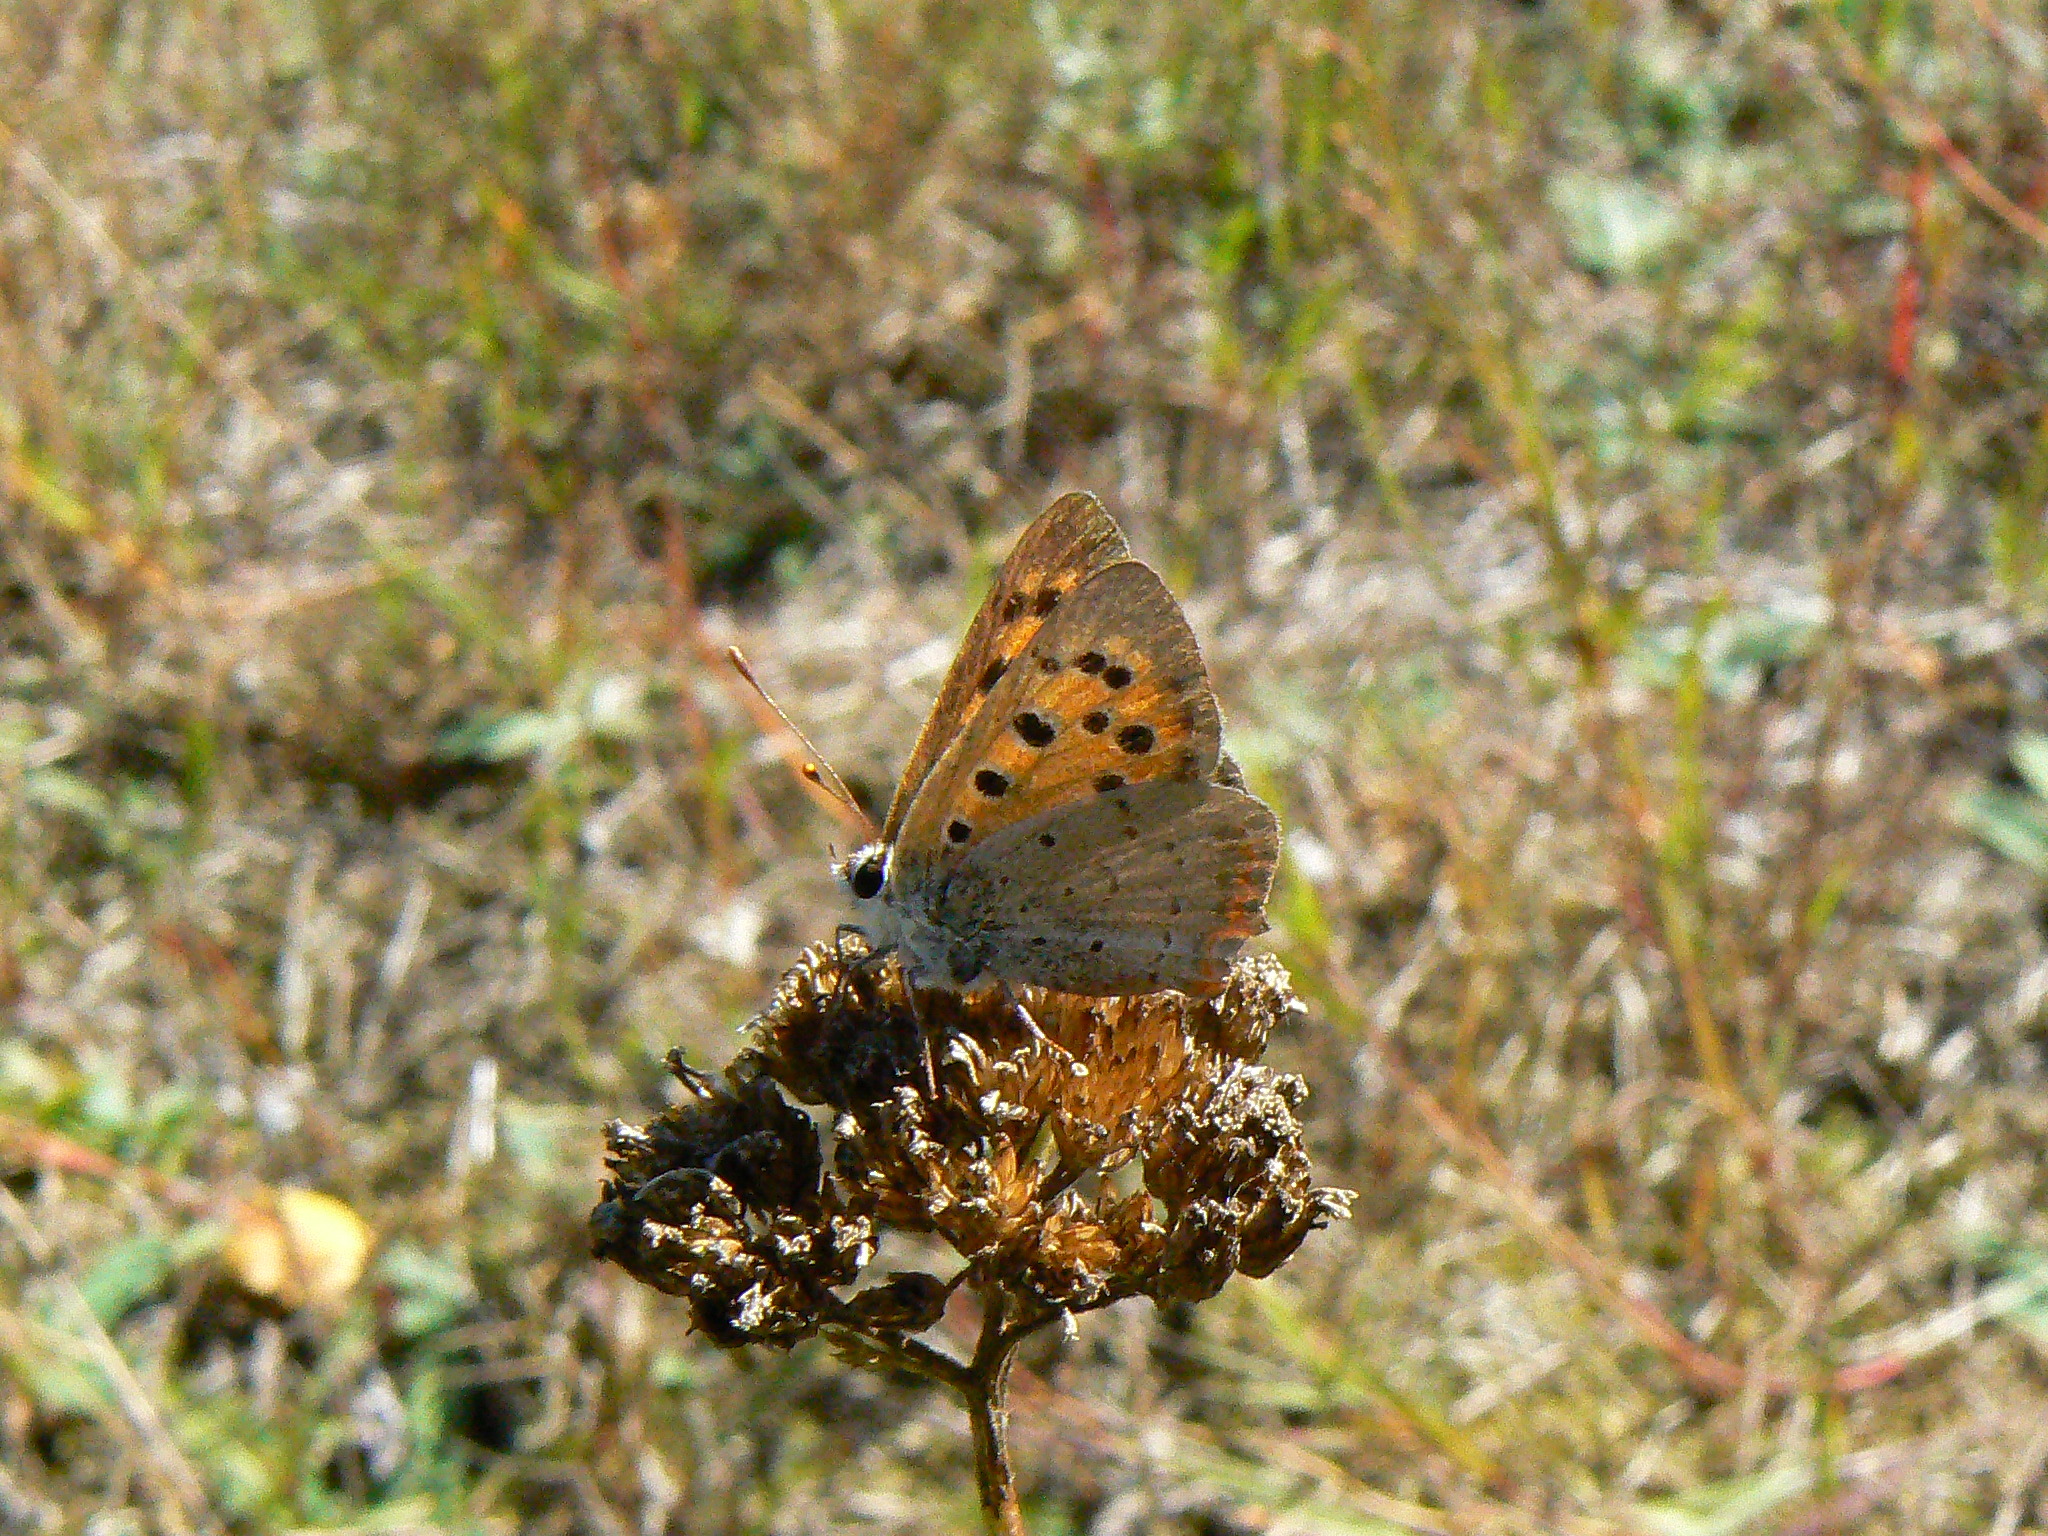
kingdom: Animalia
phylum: Arthropoda
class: Insecta
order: Lepidoptera
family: Lycaenidae
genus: Lycaena
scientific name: Lycaena phlaeas
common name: Small copper
